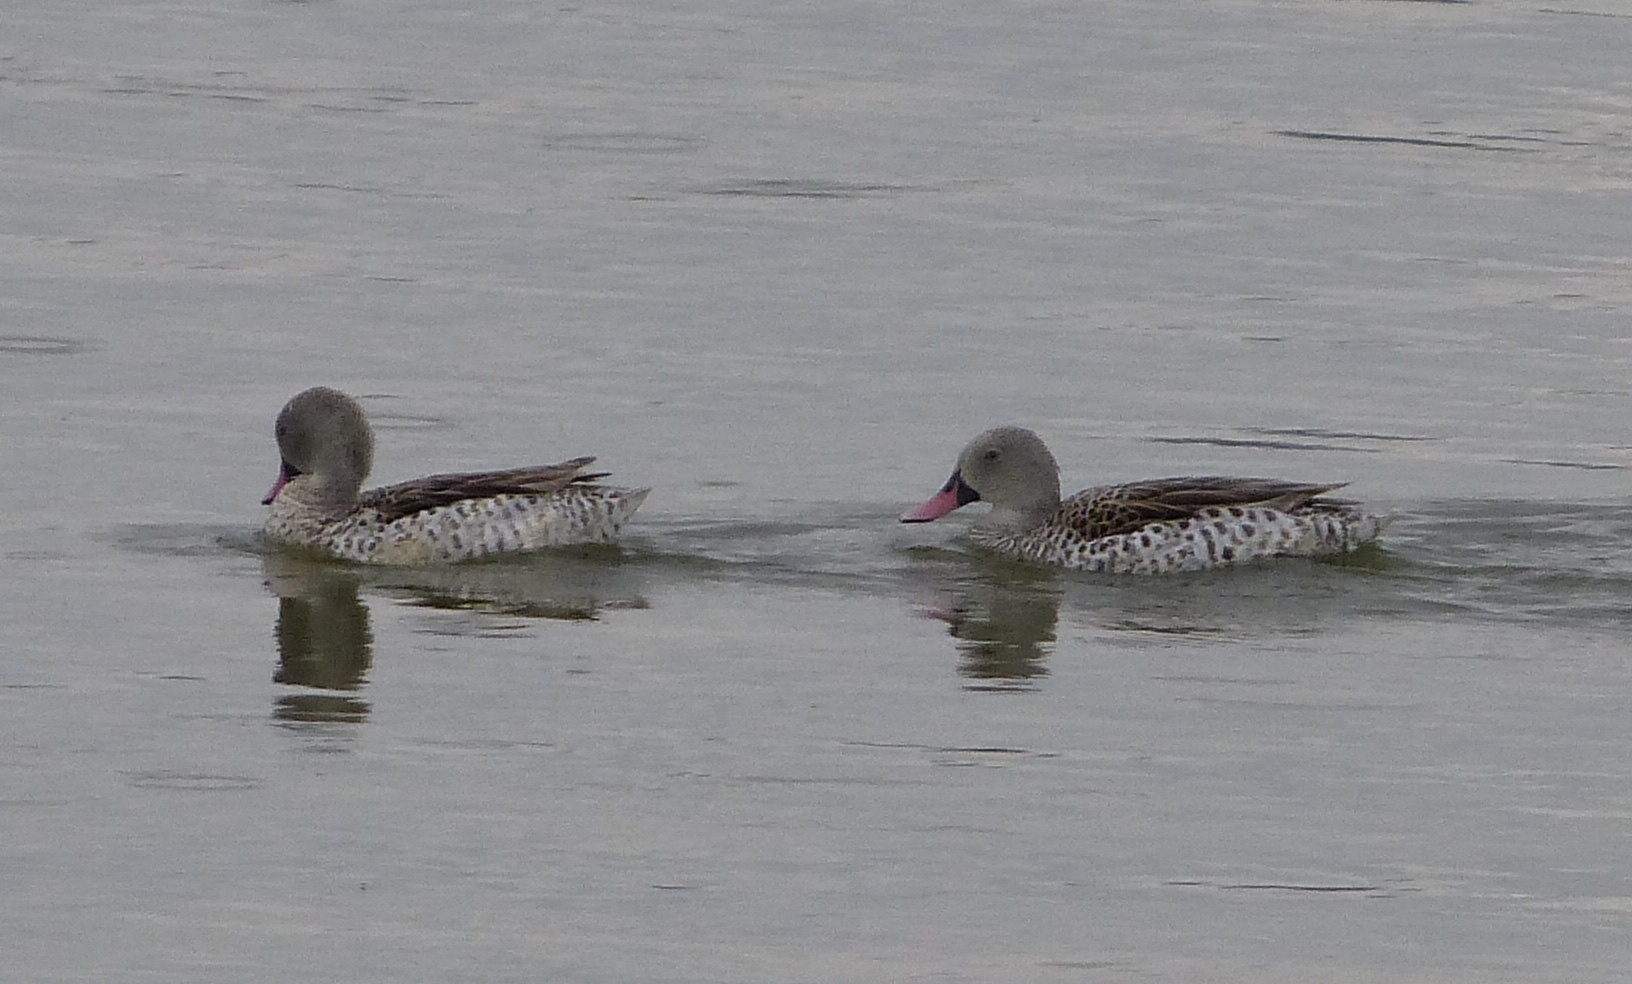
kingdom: Animalia
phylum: Chordata
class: Aves
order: Anseriformes
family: Anatidae
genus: Anas
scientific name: Anas capensis
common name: Cape teal
